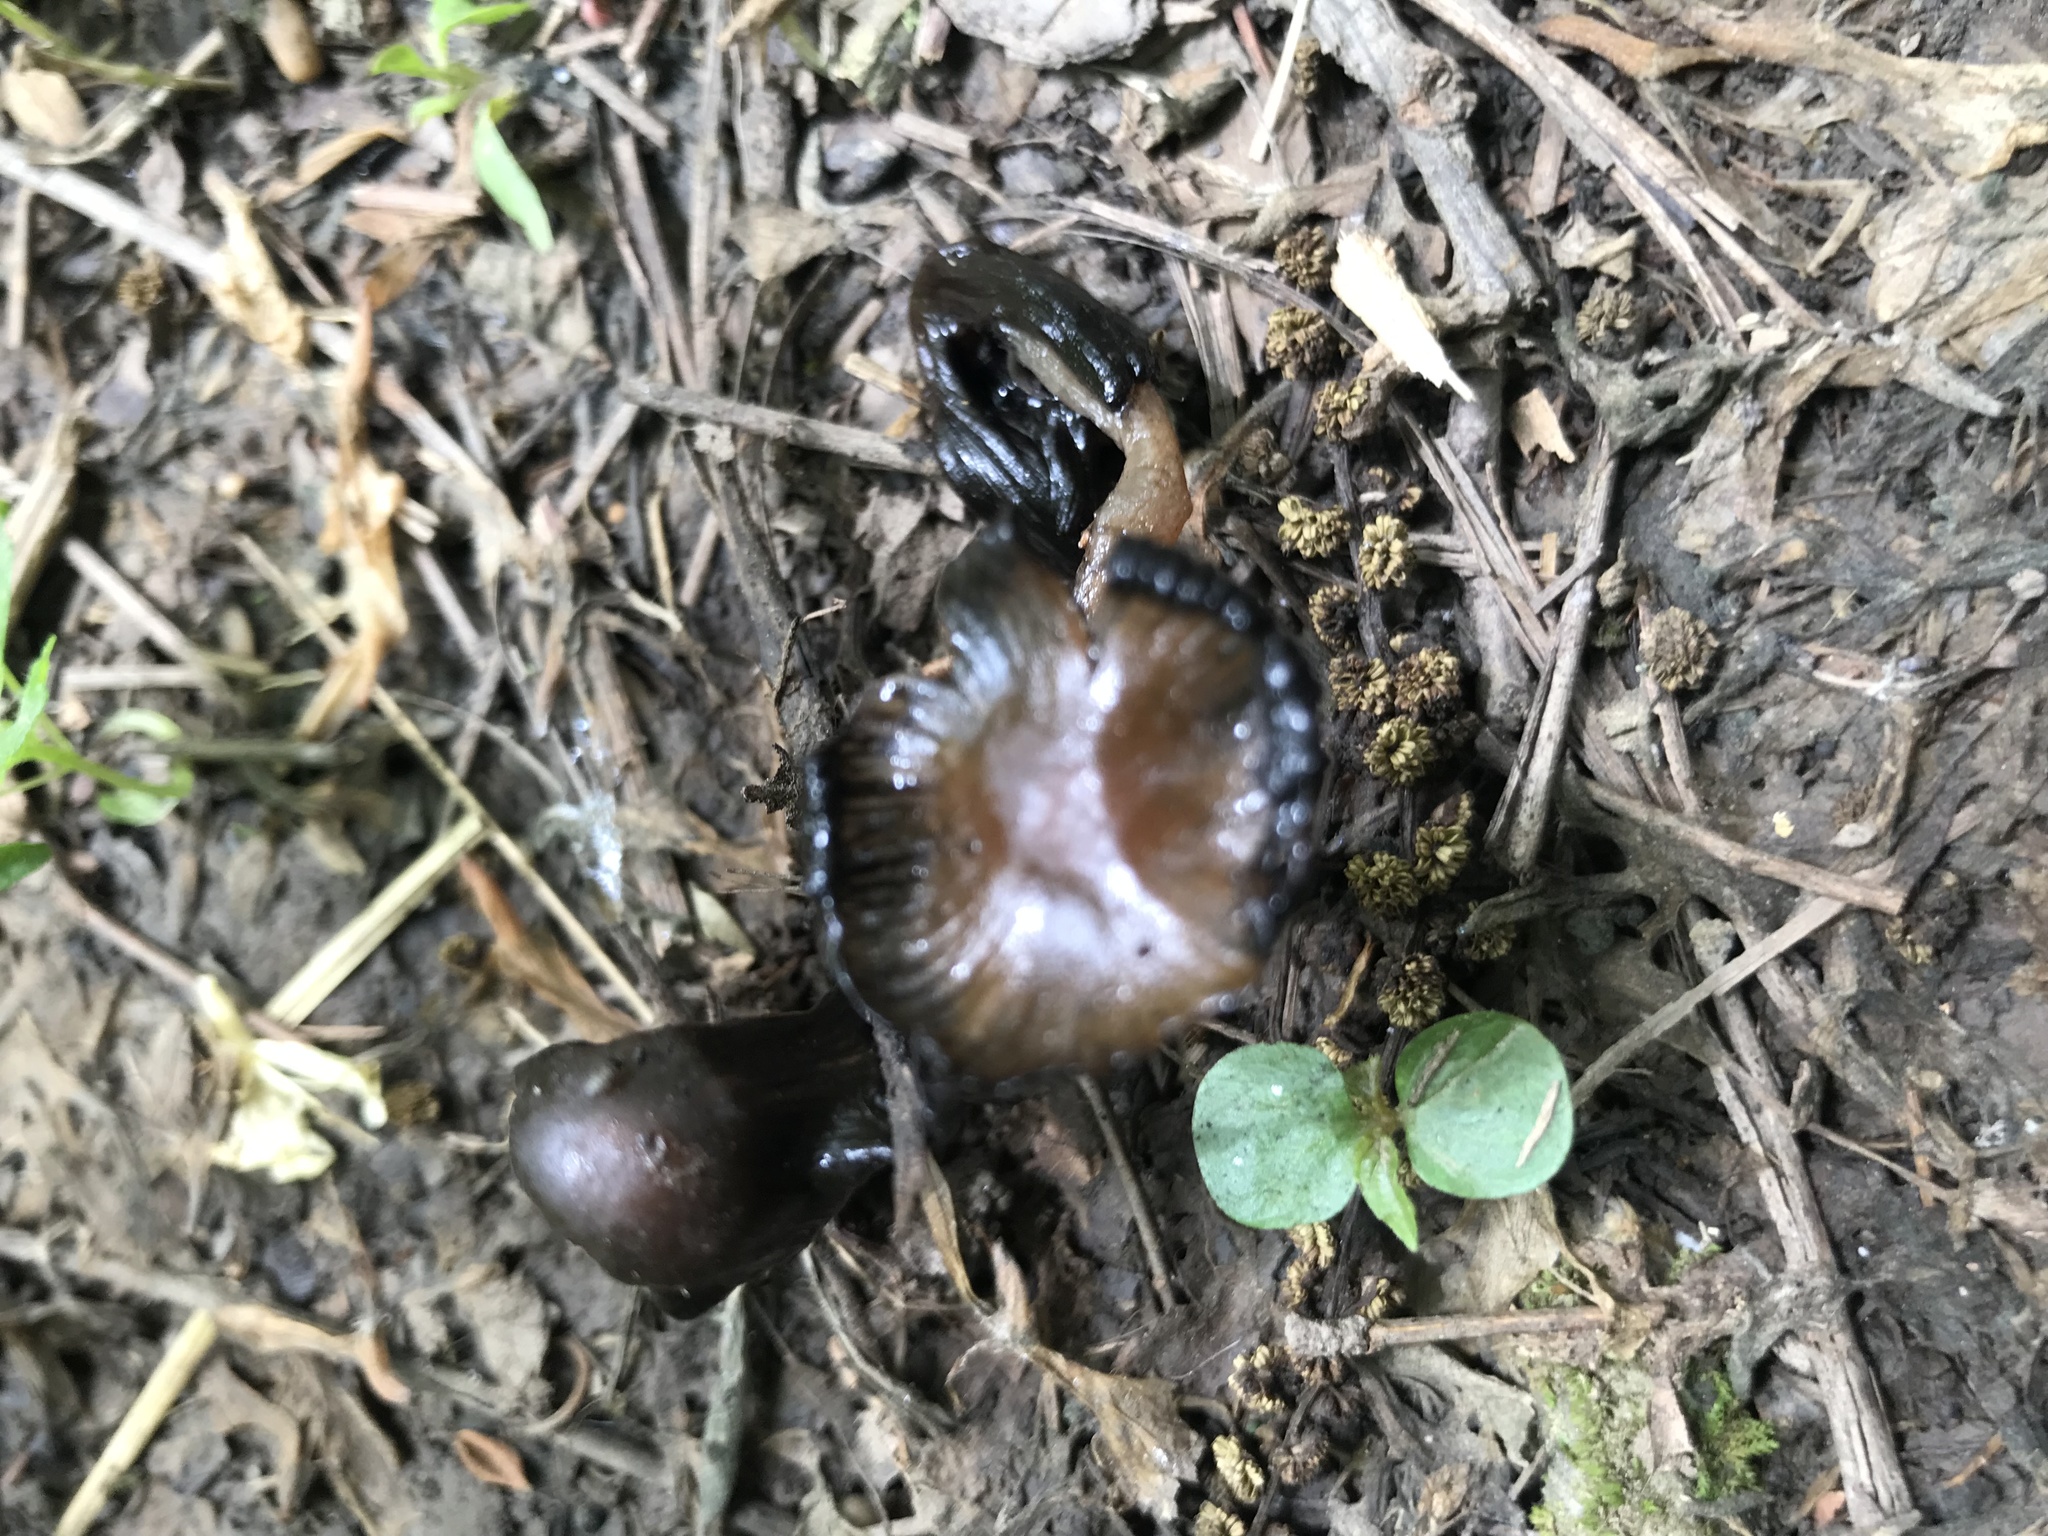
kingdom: Fungi
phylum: Basidiomycota
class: Agaricomycetes
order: Agaricales
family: Psathyrellaceae
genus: Coprinopsis
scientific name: Coprinopsis atramentaria
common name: Common ink-cap
